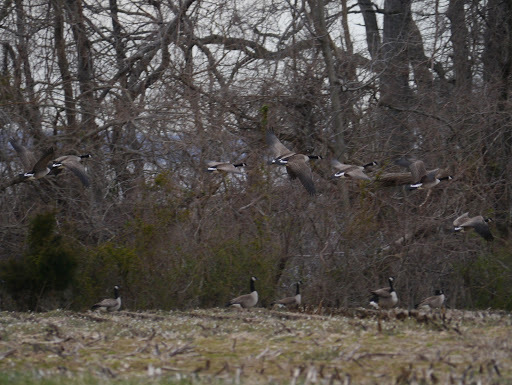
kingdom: Animalia
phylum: Chordata
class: Aves
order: Anseriformes
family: Anatidae
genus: Branta
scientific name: Branta canadensis
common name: Canada goose
